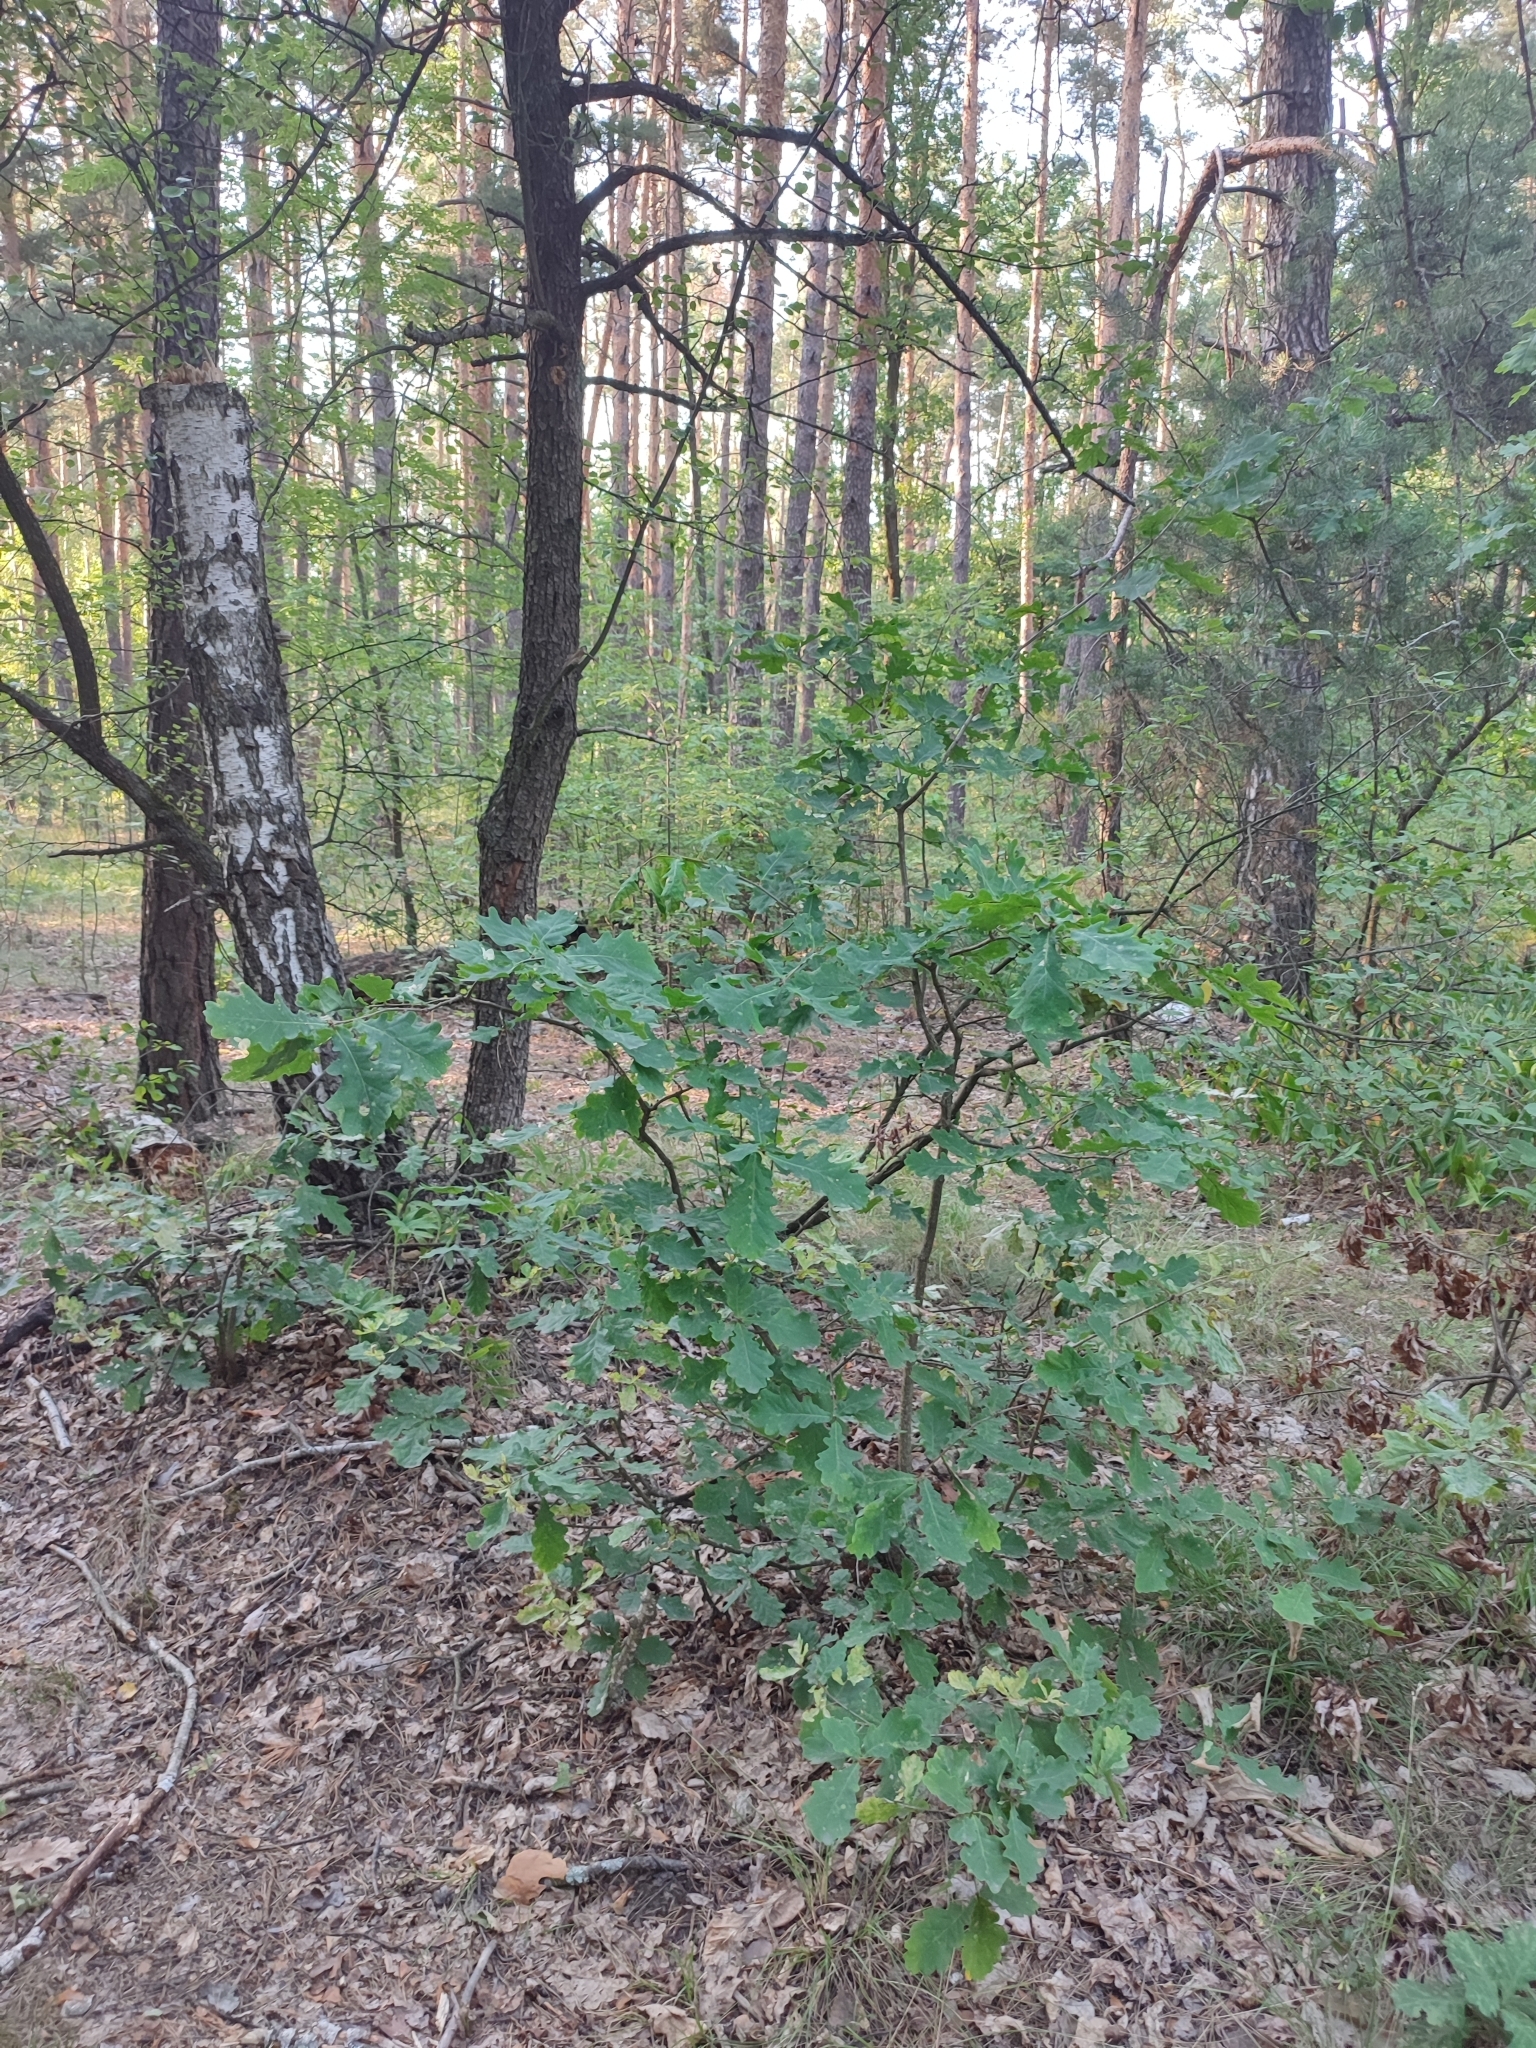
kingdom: Plantae
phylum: Tracheophyta
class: Magnoliopsida
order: Fagales
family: Fagaceae
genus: Quercus
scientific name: Quercus robur
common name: Pedunculate oak
